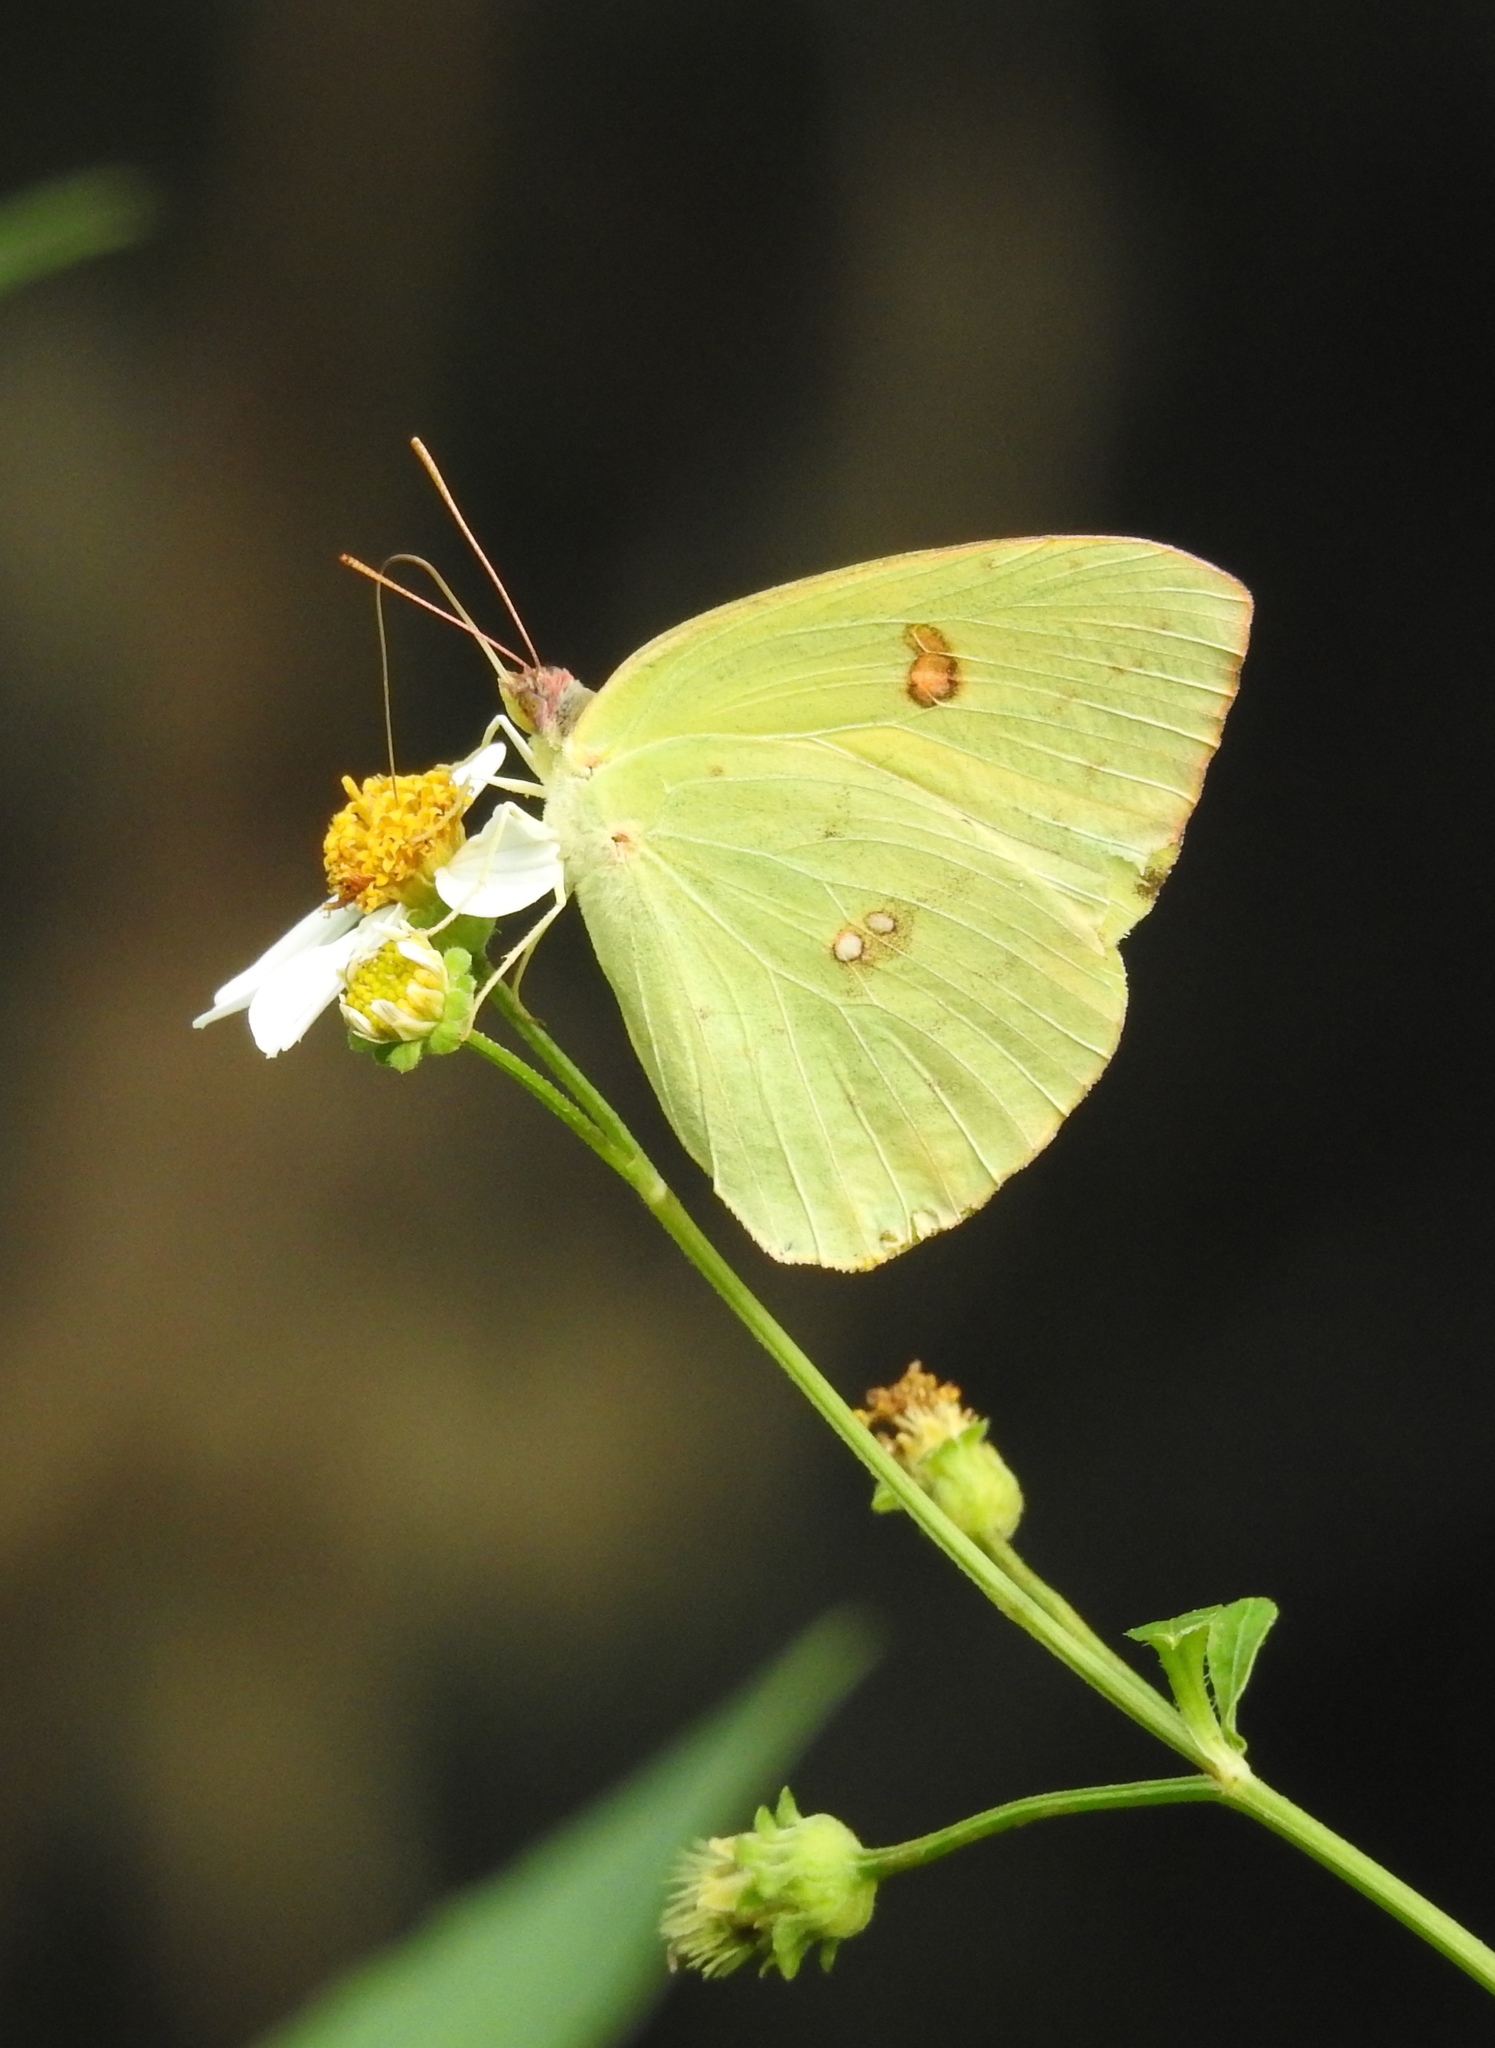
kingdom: Animalia
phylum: Arthropoda
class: Insecta
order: Lepidoptera
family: Pieridae
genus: Phoebis
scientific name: Phoebis sennae
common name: Cloudless sulphur
